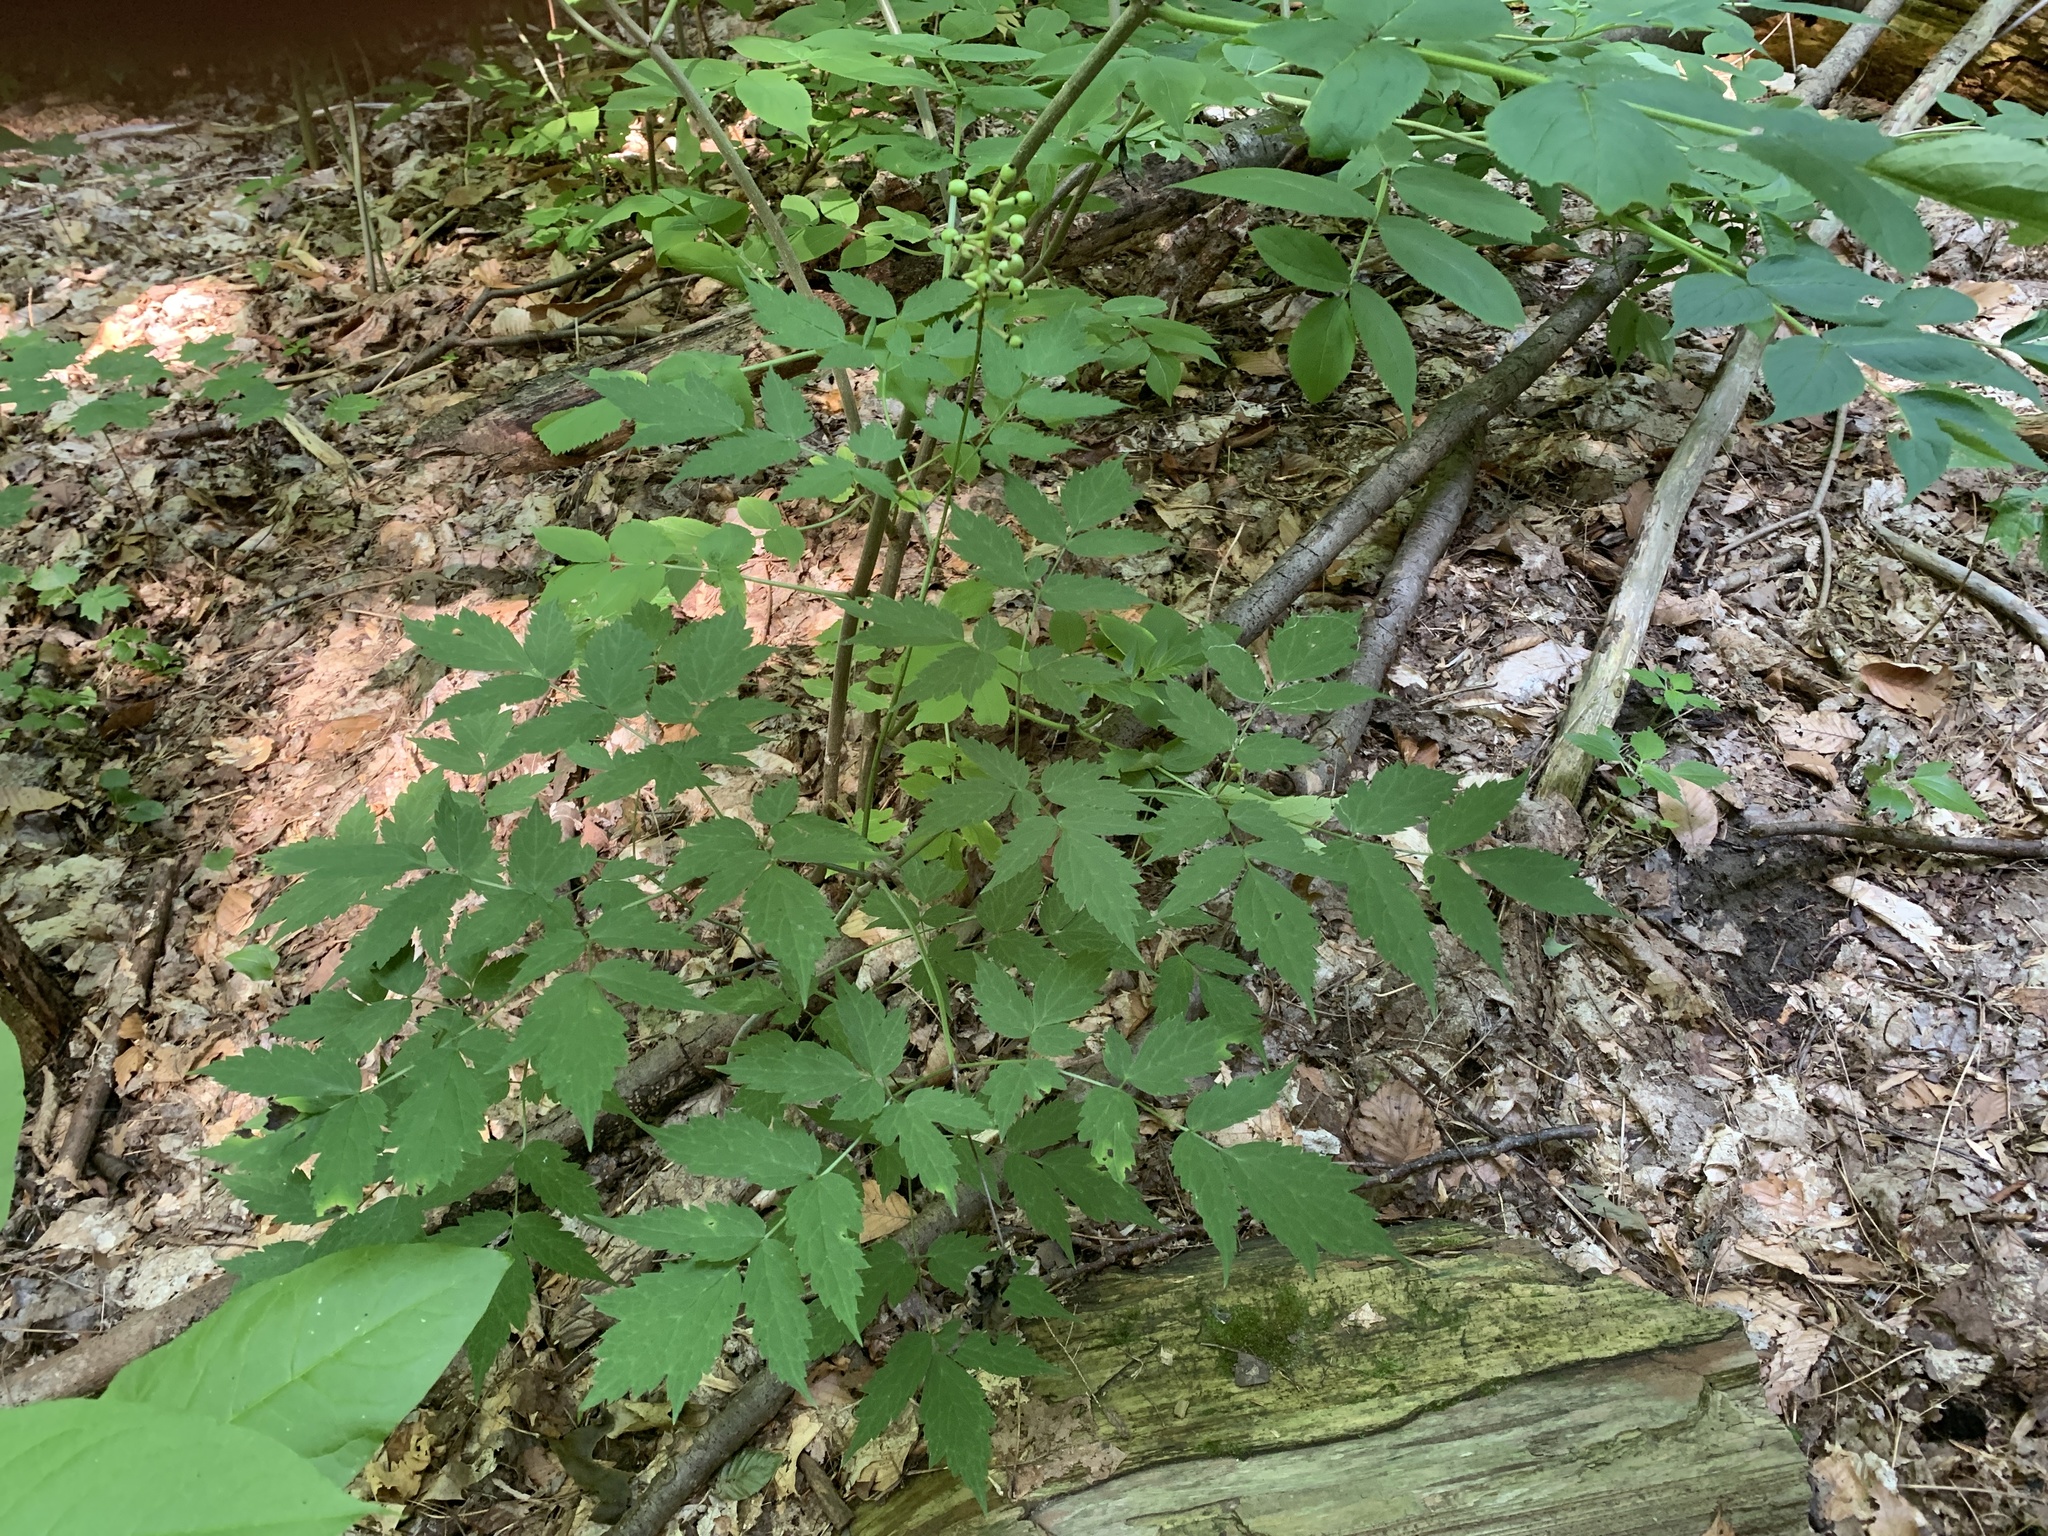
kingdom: Plantae
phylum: Tracheophyta
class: Magnoliopsida
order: Ranunculales
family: Ranunculaceae
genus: Actaea
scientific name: Actaea pachypoda
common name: Doll's-eyes
